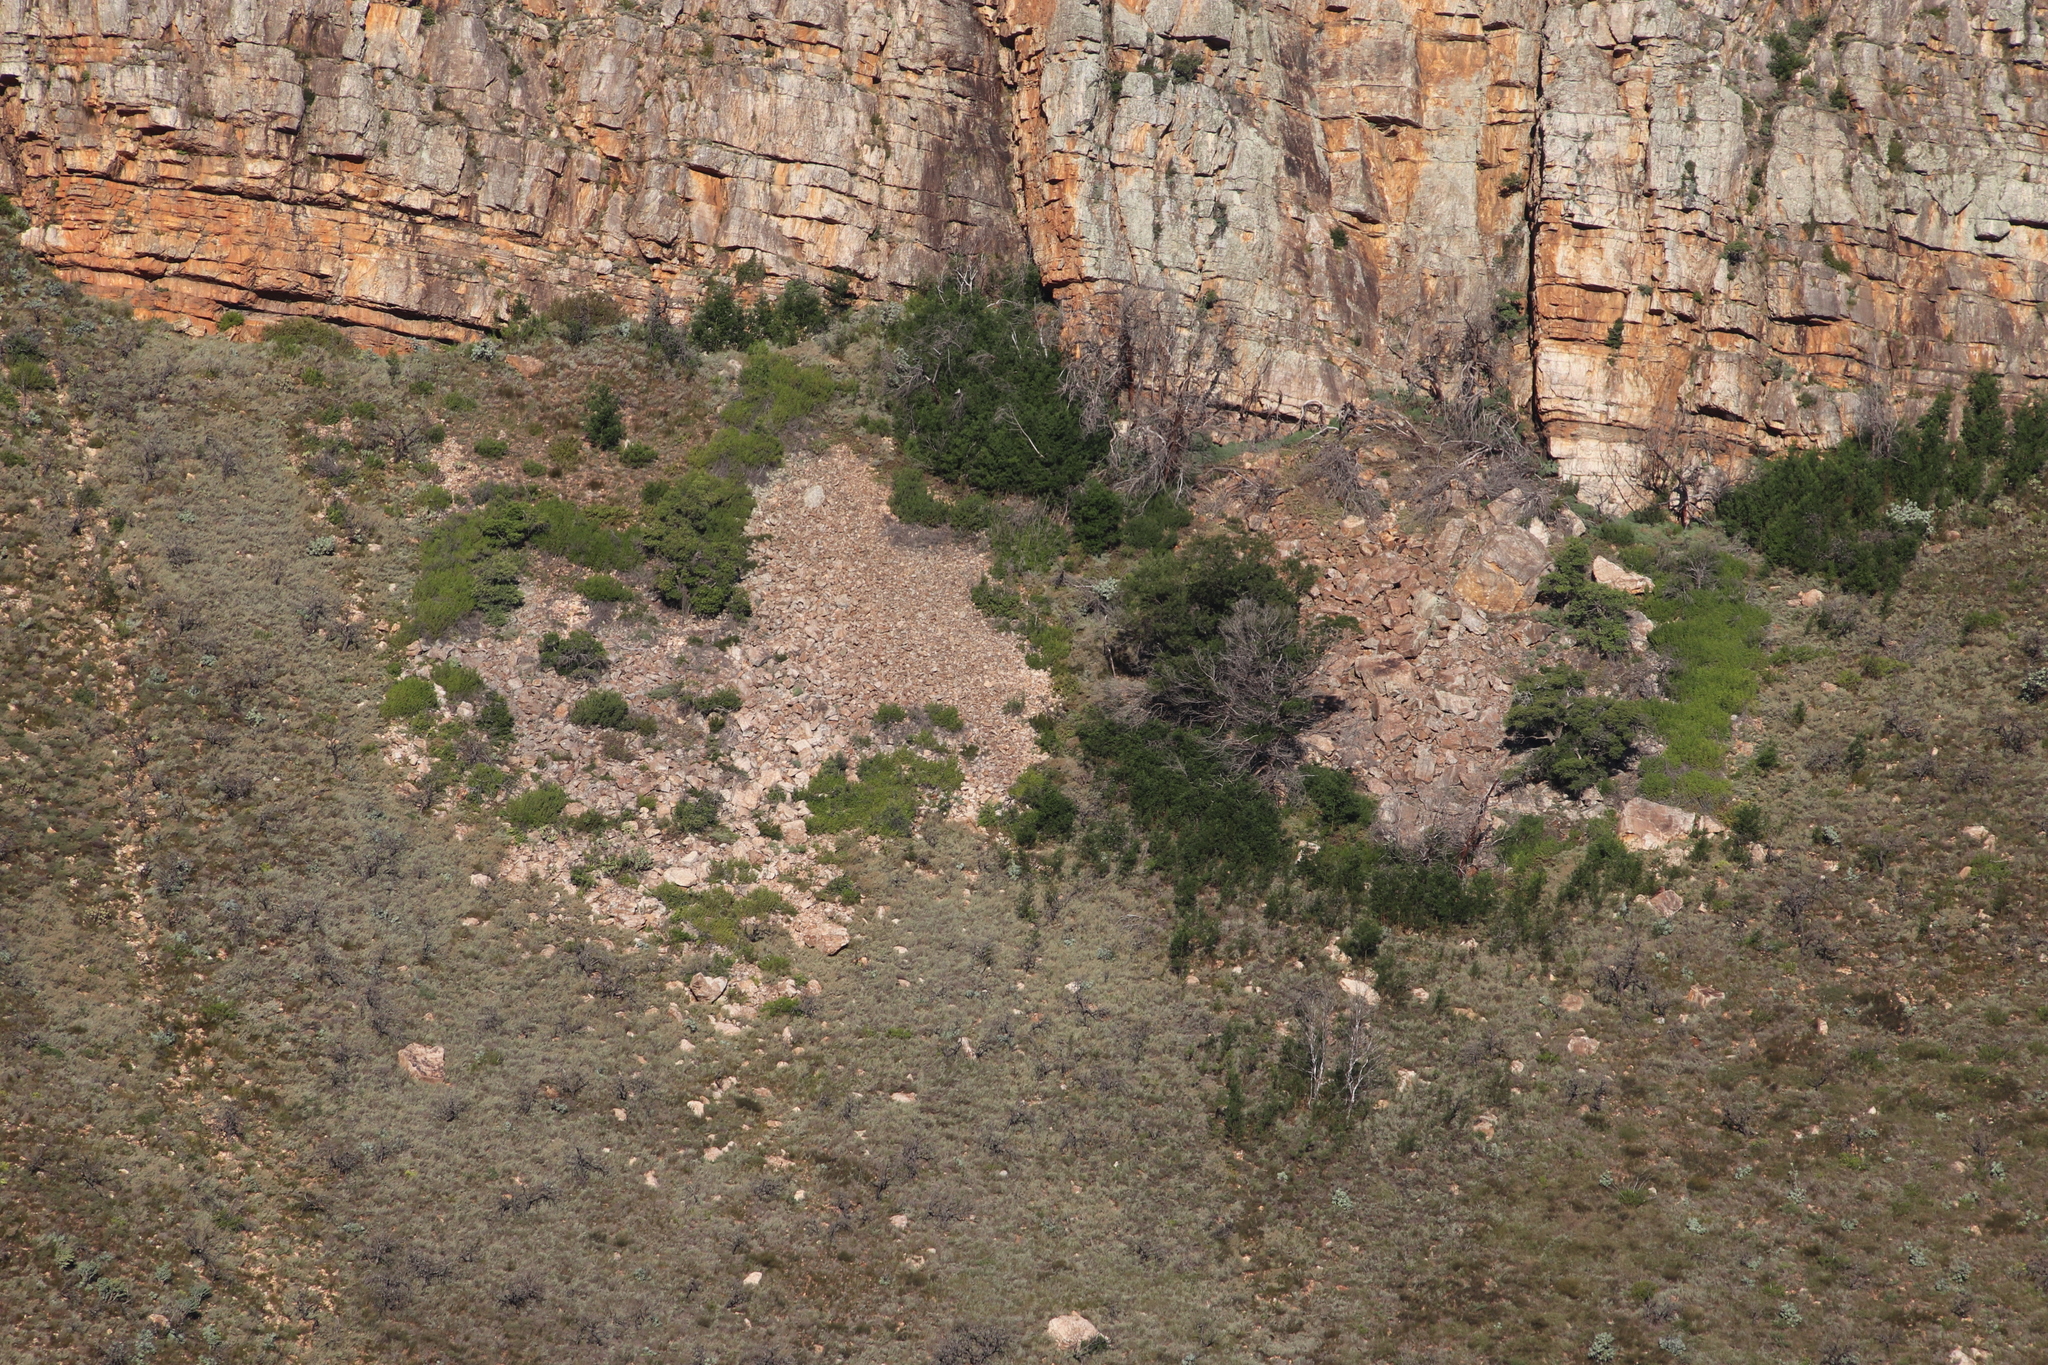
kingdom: Plantae
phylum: Tracheophyta
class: Magnoliopsida
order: Fabales
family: Fabaceae
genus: Acacia
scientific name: Acacia mearnsii
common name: Black wattle
